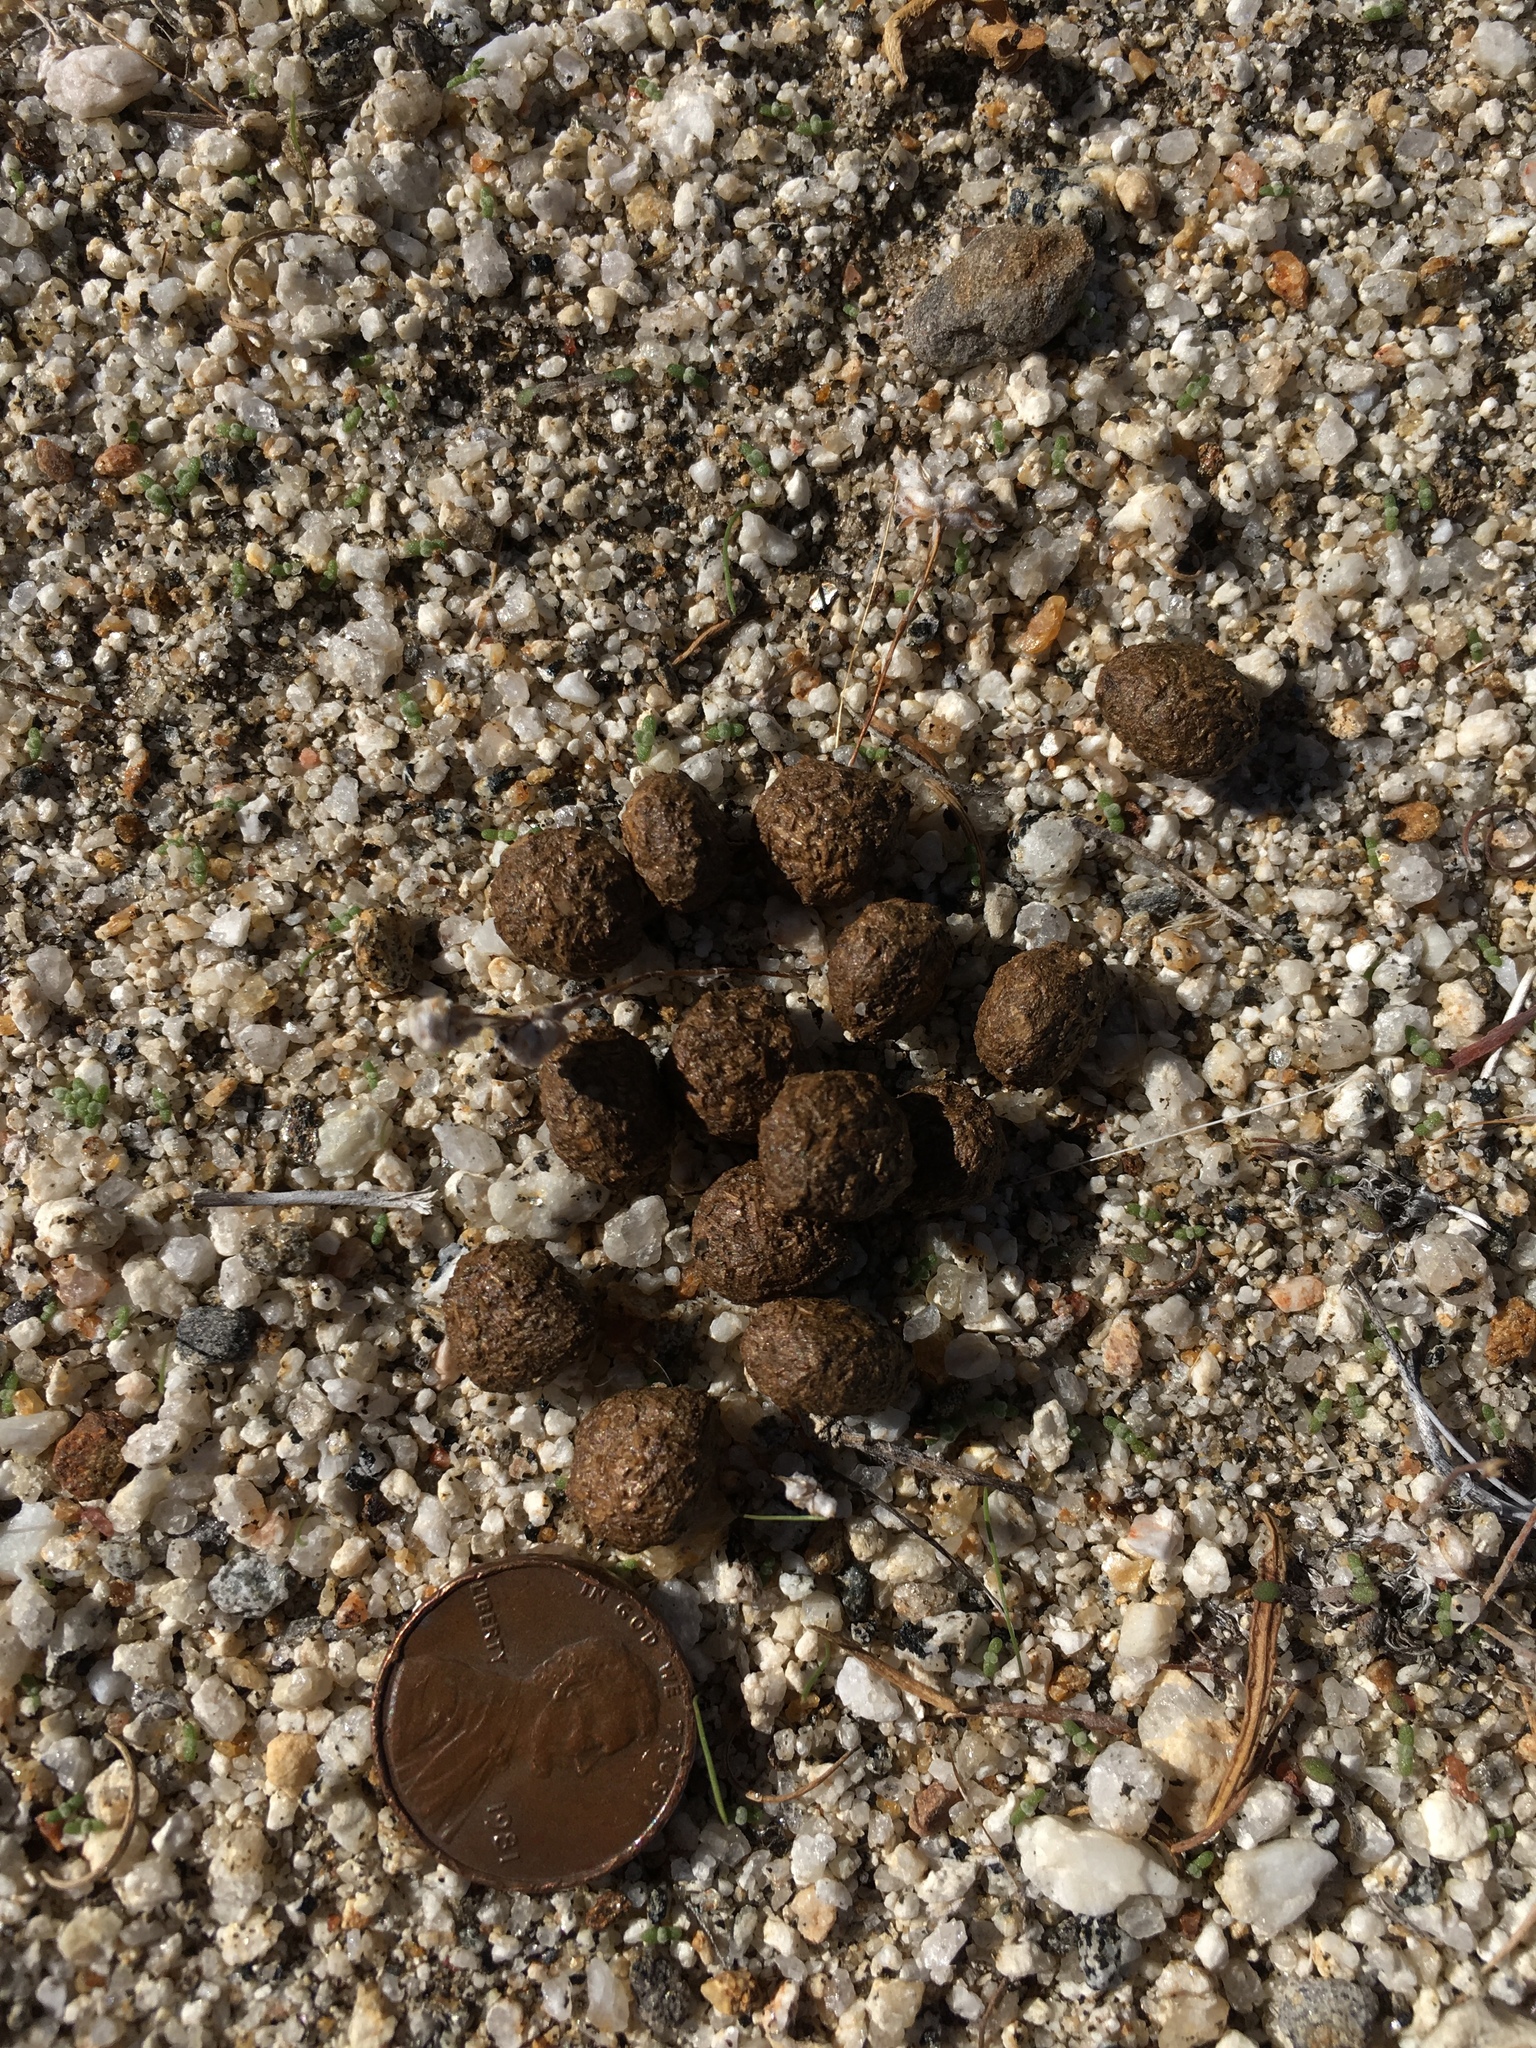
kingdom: Animalia
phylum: Chordata
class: Mammalia
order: Lagomorpha
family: Leporidae
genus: Lepus
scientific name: Lepus californicus
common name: Black-tailed jackrabbit
